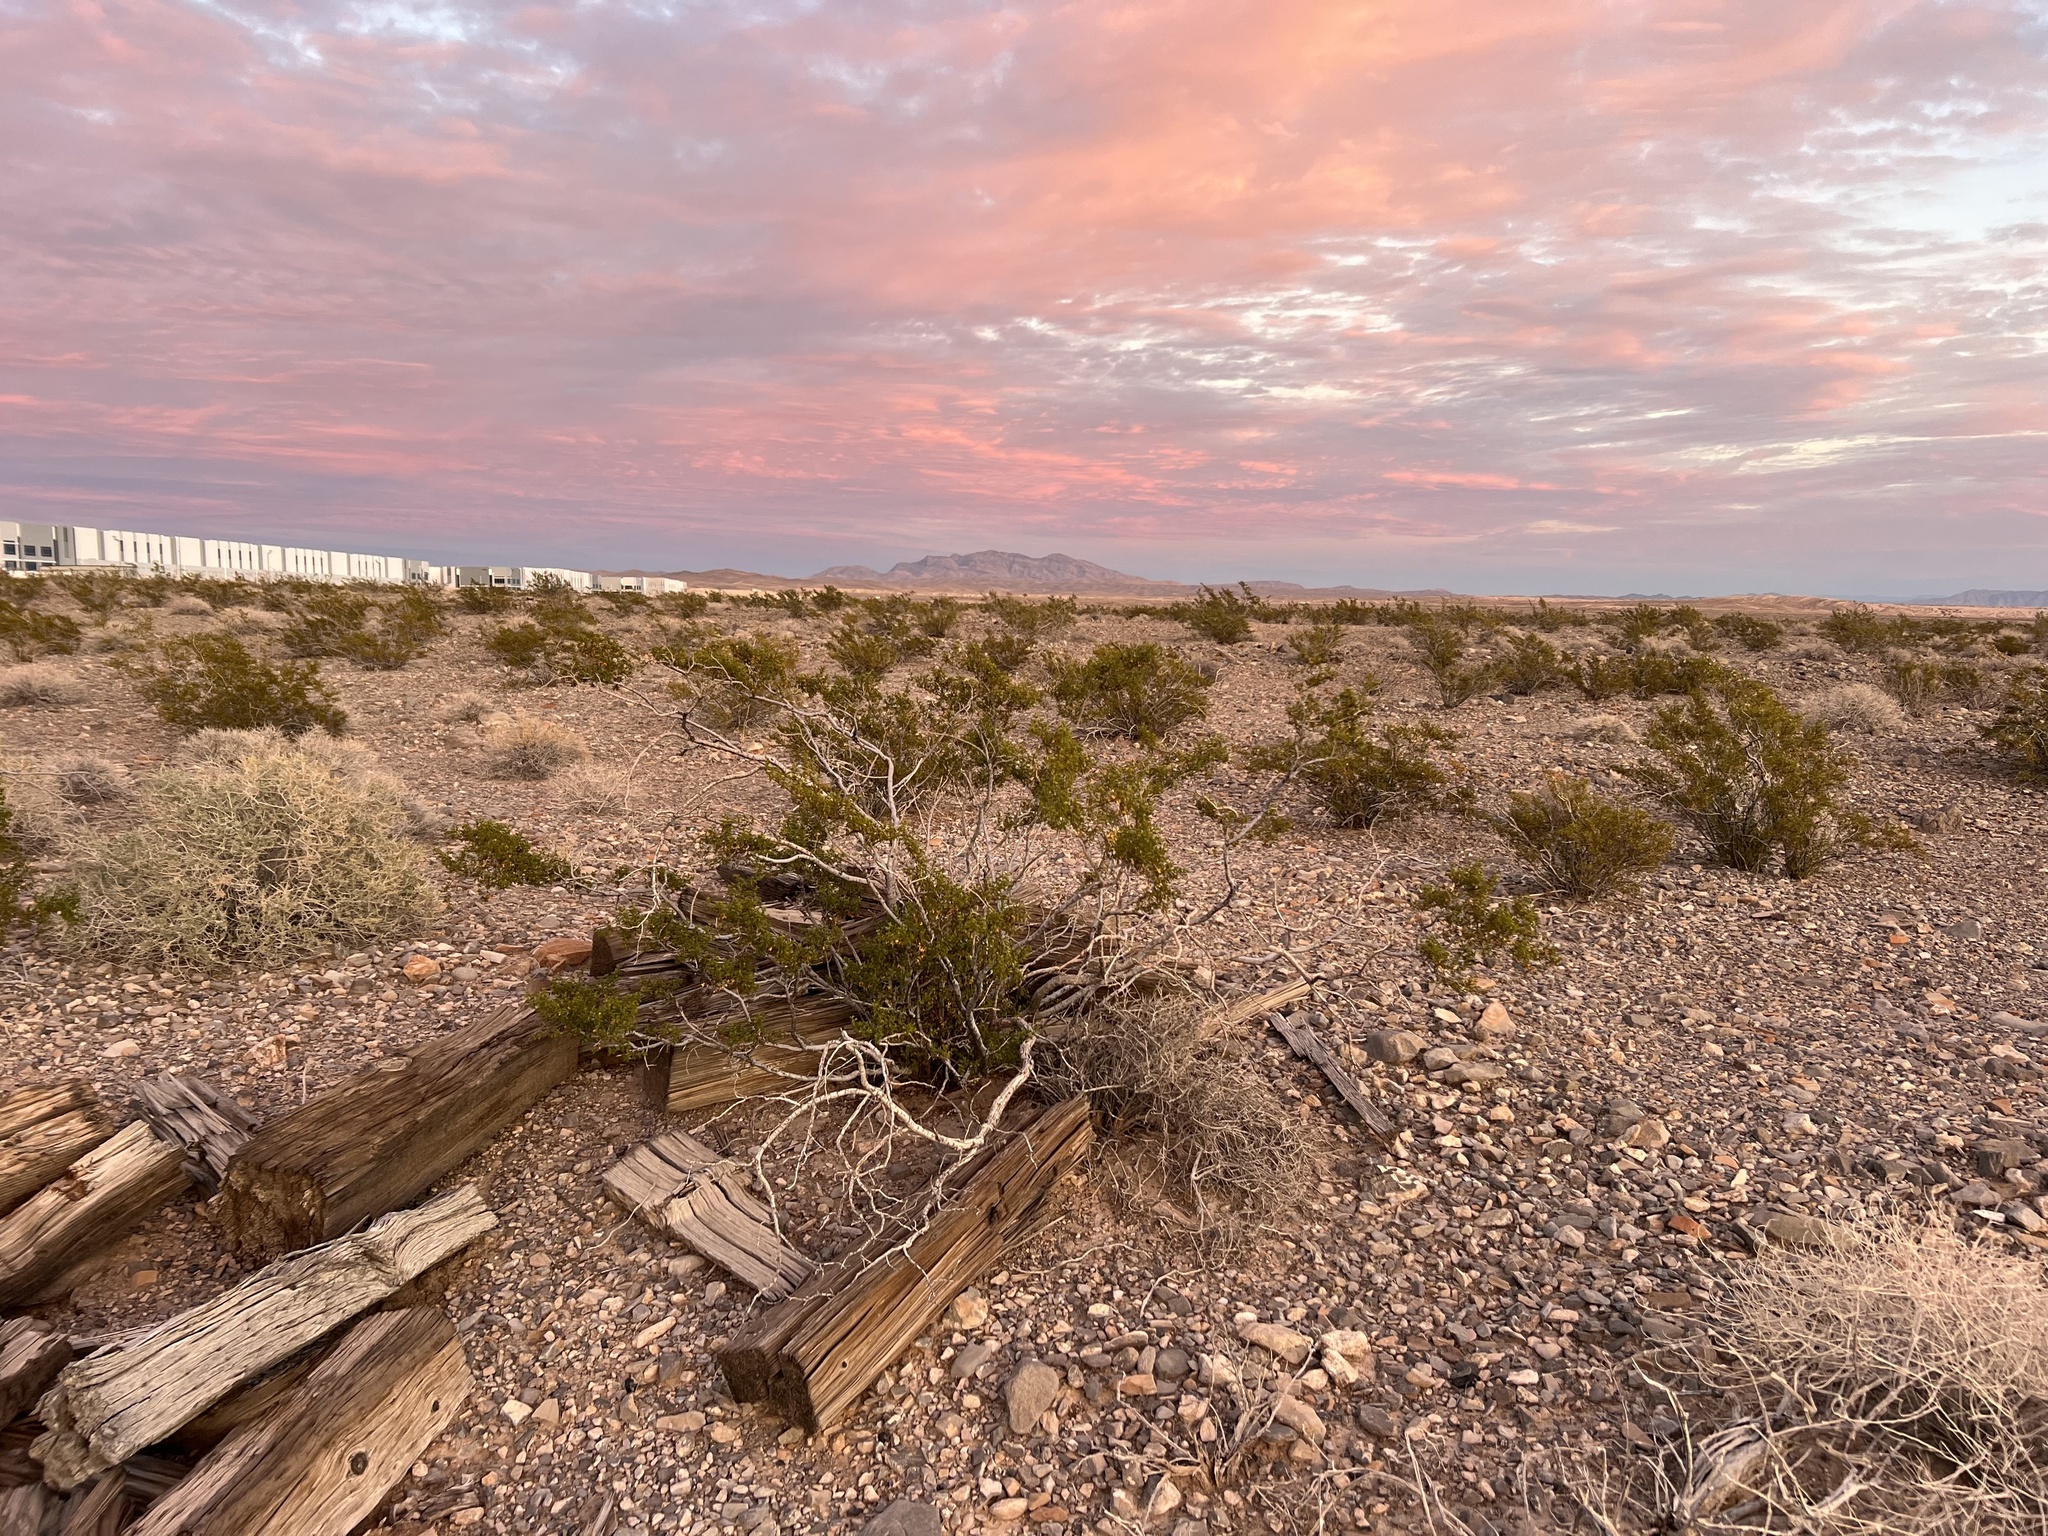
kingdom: Plantae
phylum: Tracheophyta
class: Magnoliopsida
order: Zygophyllales
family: Zygophyllaceae
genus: Larrea
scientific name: Larrea tridentata
